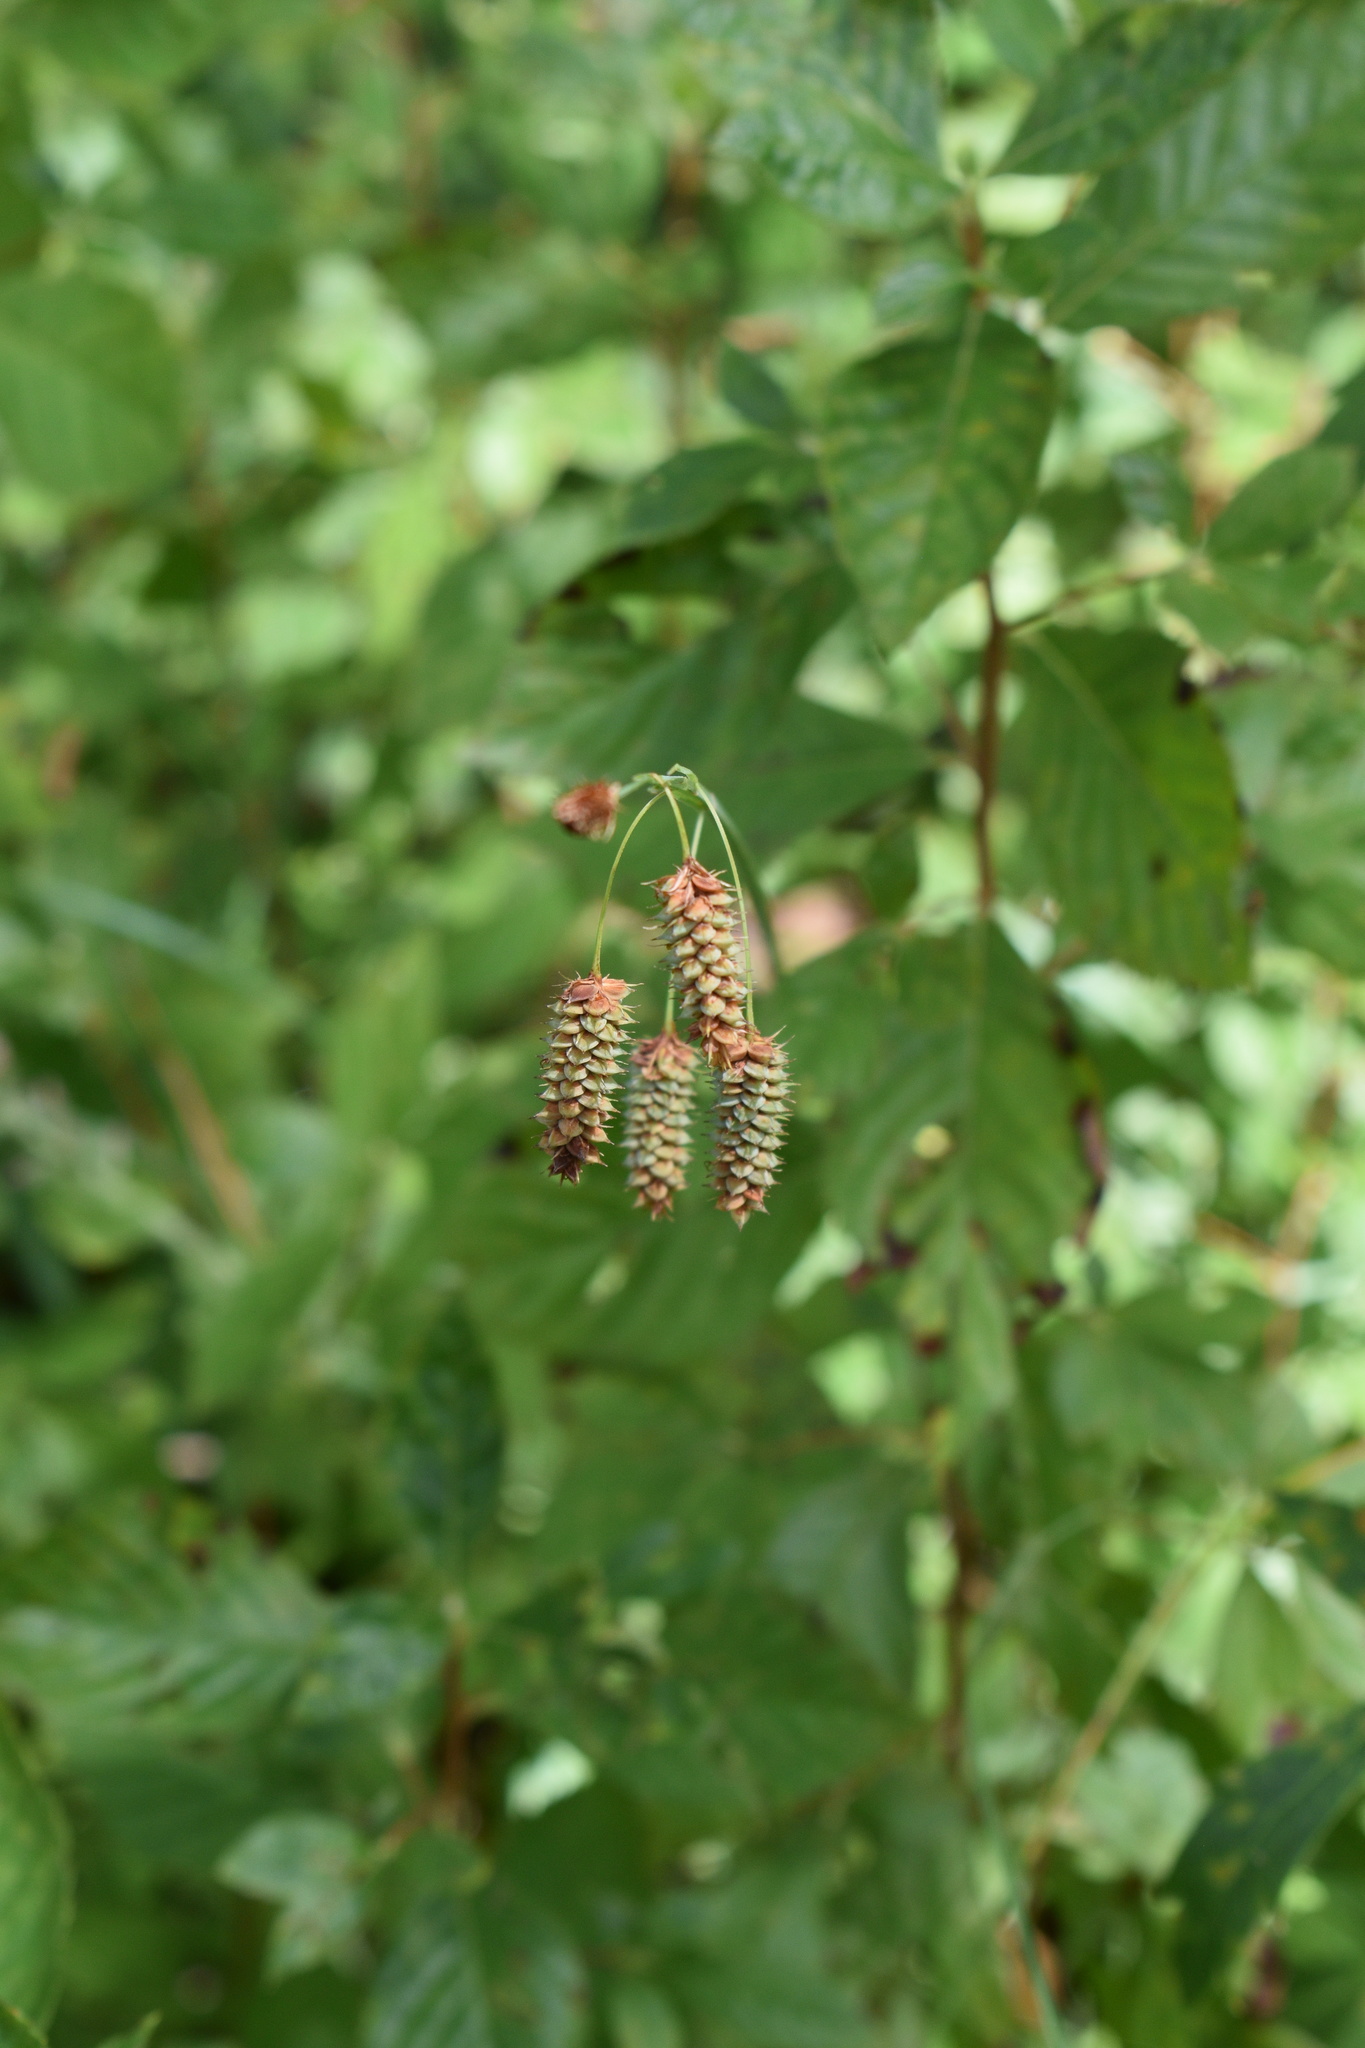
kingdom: Plantae
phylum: Tracheophyta
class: Liliopsida
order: Poales
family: Cyperaceae
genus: Carex
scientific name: Carex glaucescens
